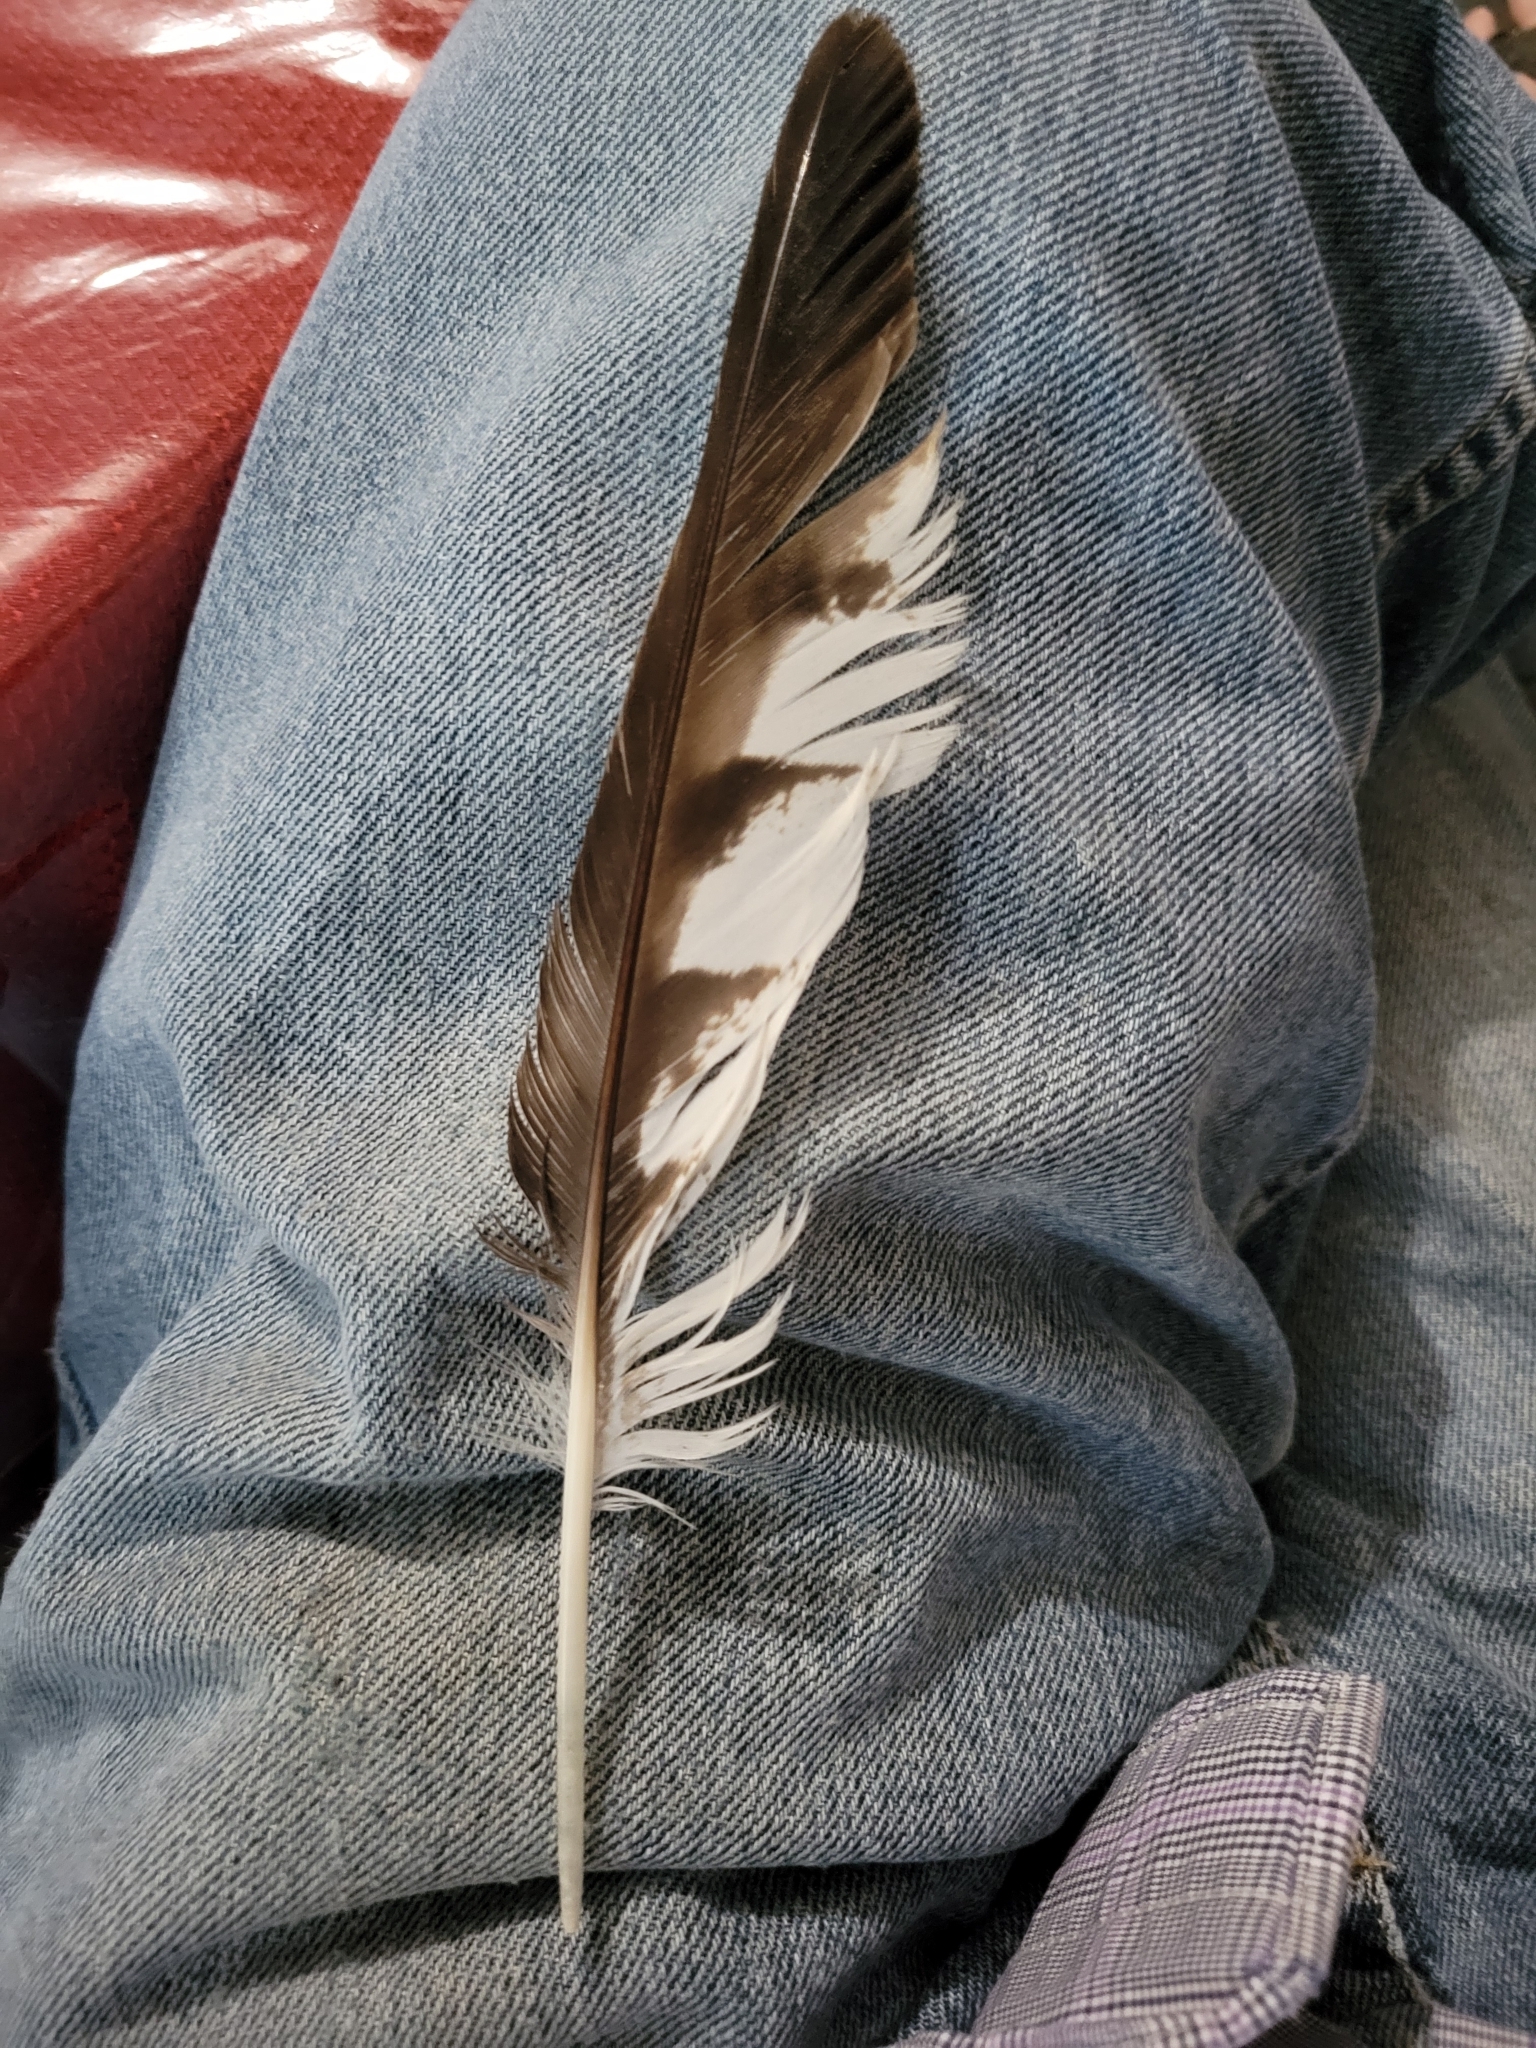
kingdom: Animalia
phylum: Chordata
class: Aves
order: Accipitriformes
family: Accipitridae
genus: Buteo
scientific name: Buteo platypterus
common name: Broad-winged hawk
